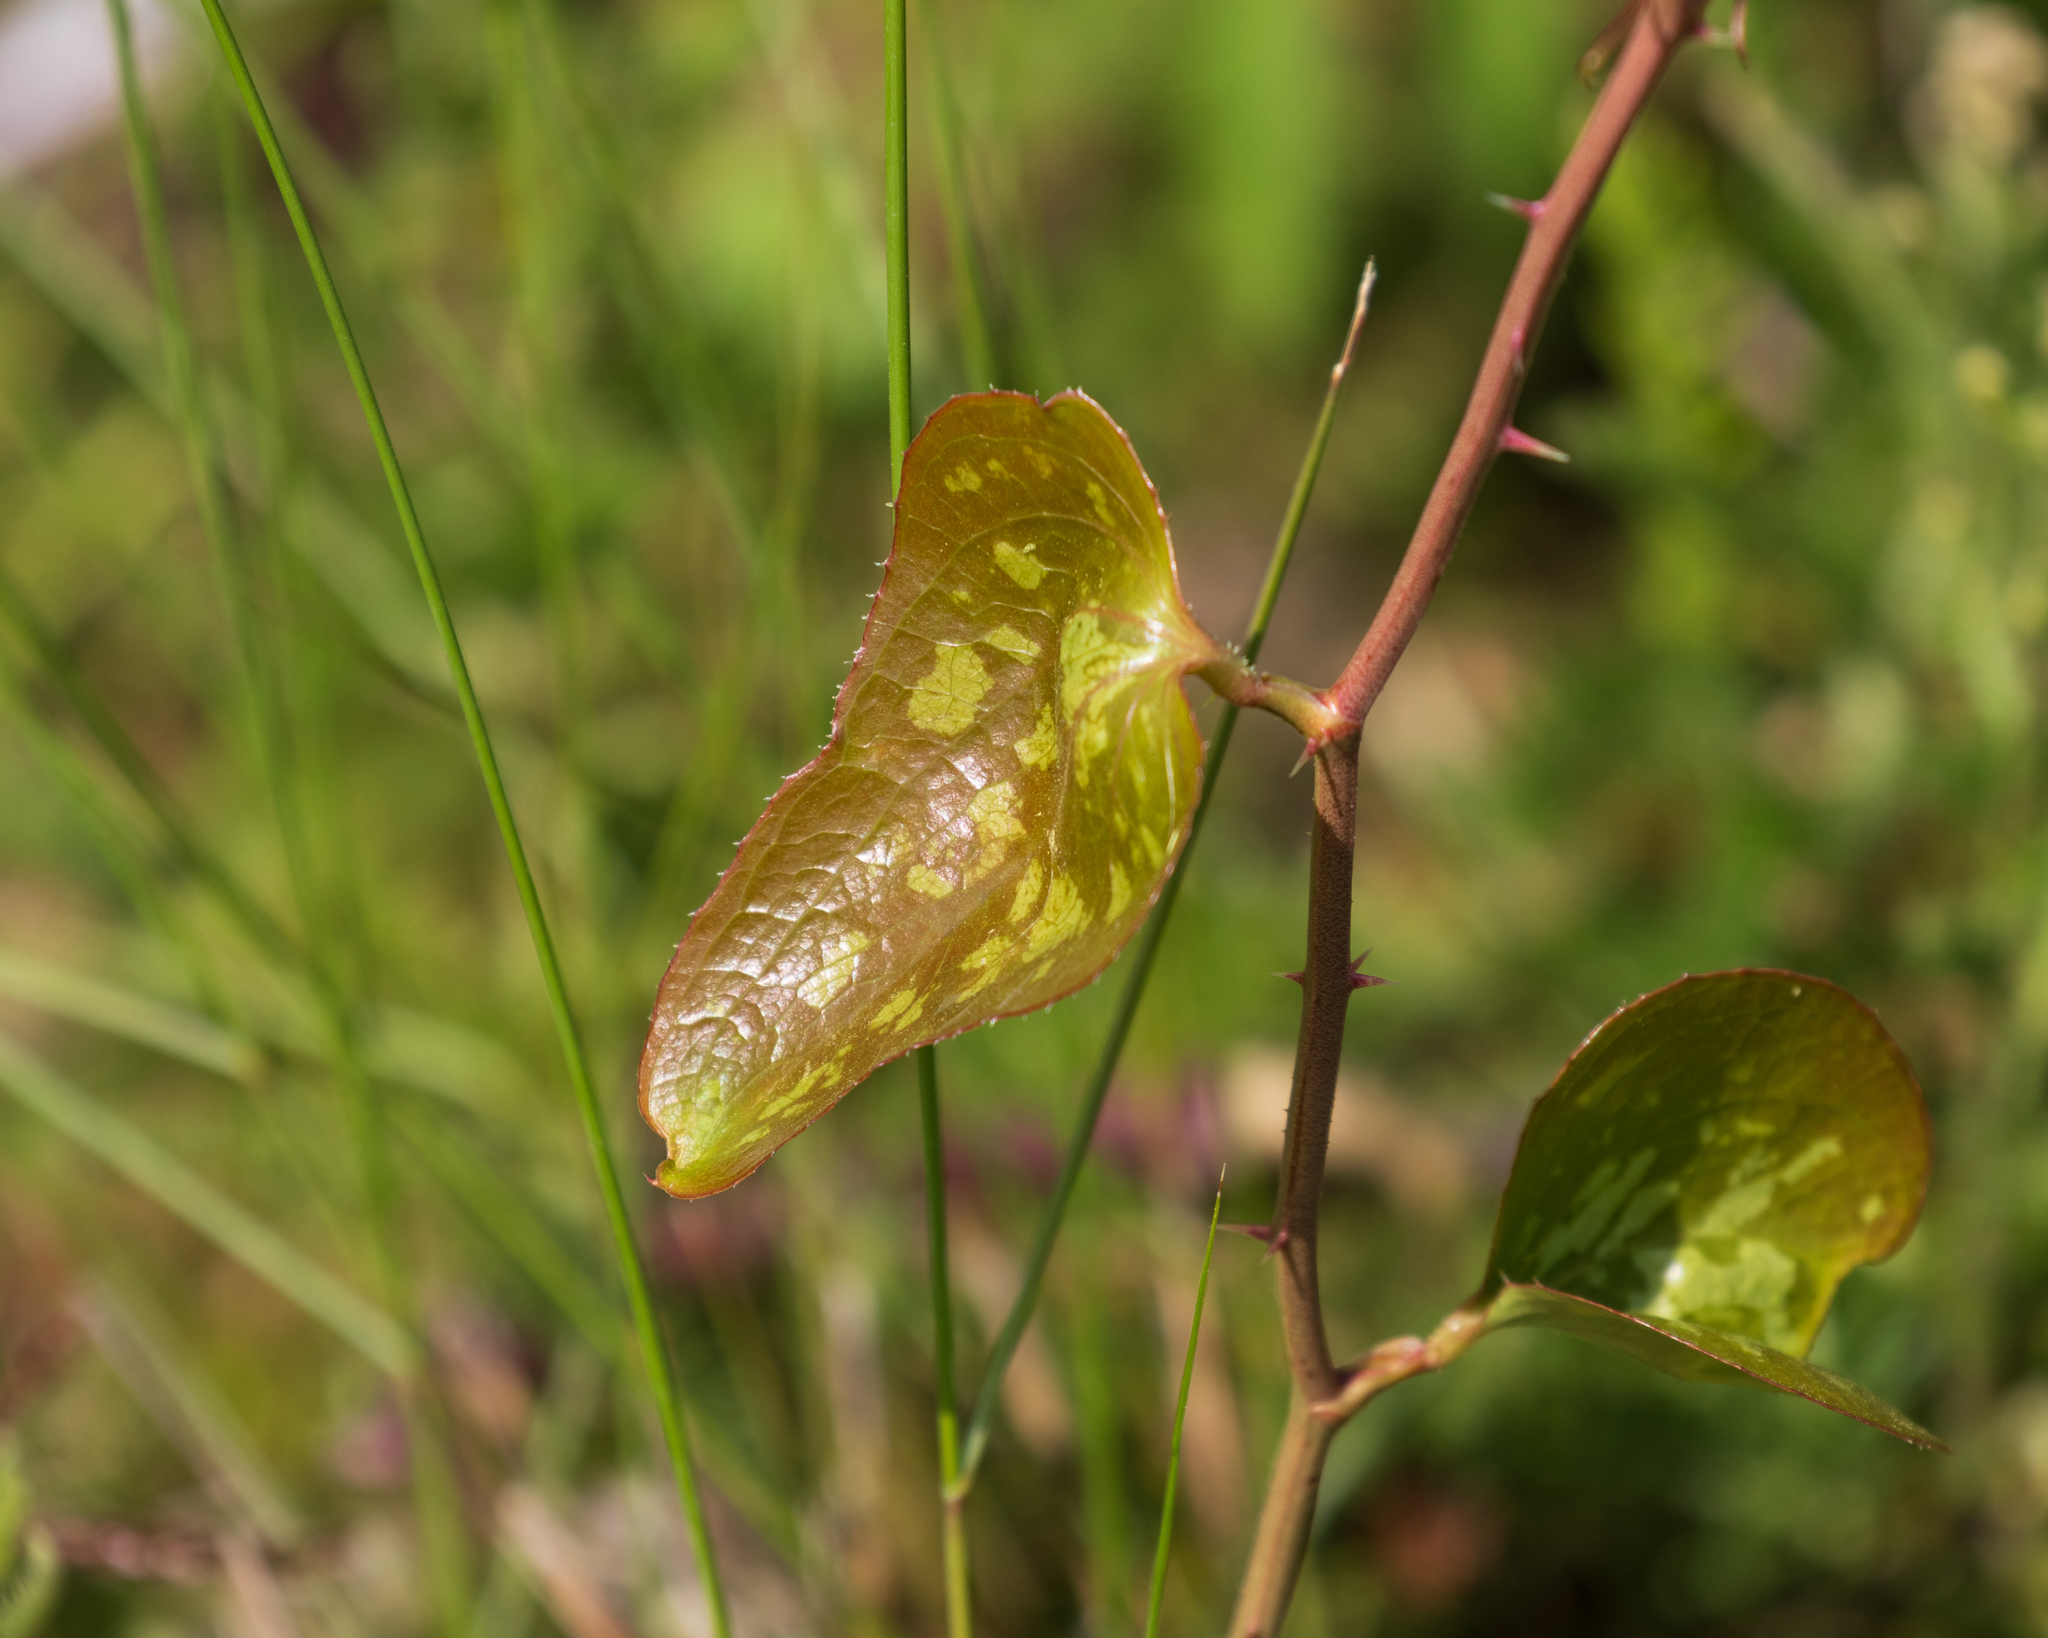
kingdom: Plantae
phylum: Tracheophyta
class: Liliopsida
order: Liliales
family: Smilacaceae
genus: Smilax
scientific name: Smilax bona-nox
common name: Catbrier
